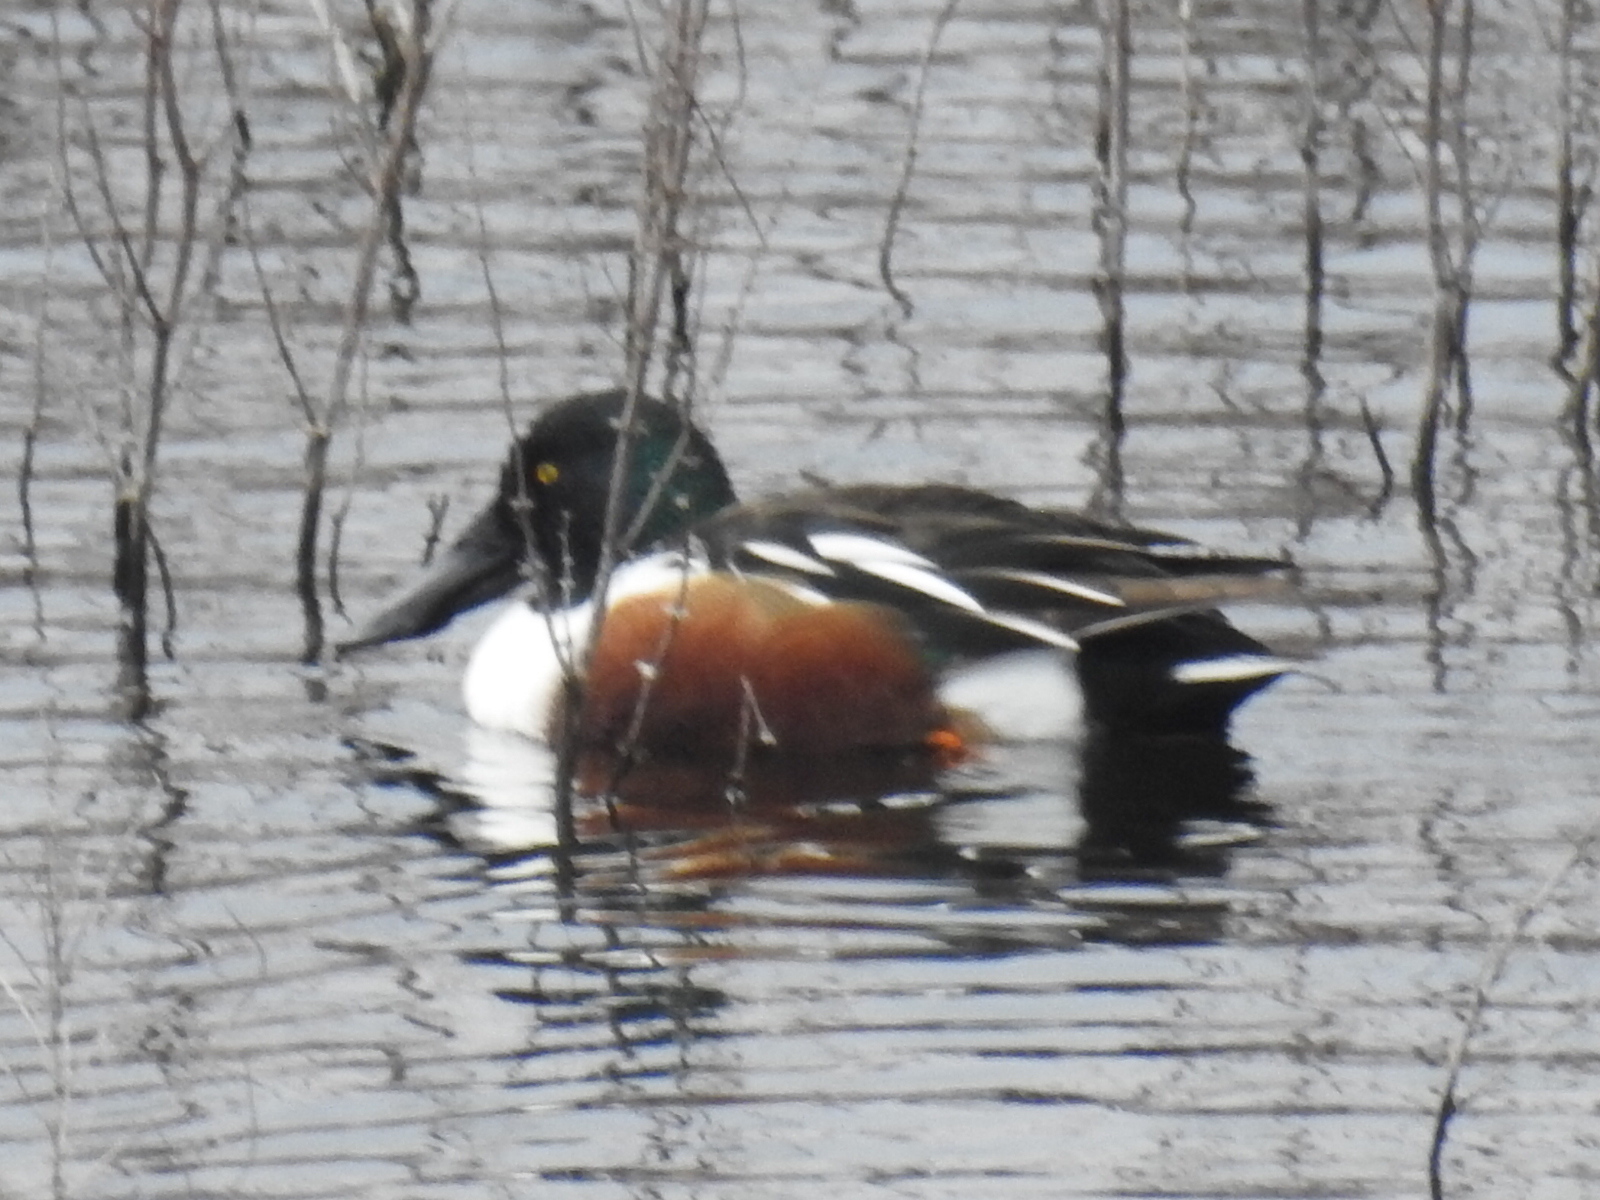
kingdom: Animalia
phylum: Chordata
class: Aves
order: Anseriformes
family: Anatidae
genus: Spatula
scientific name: Spatula clypeata
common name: Northern shoveler
